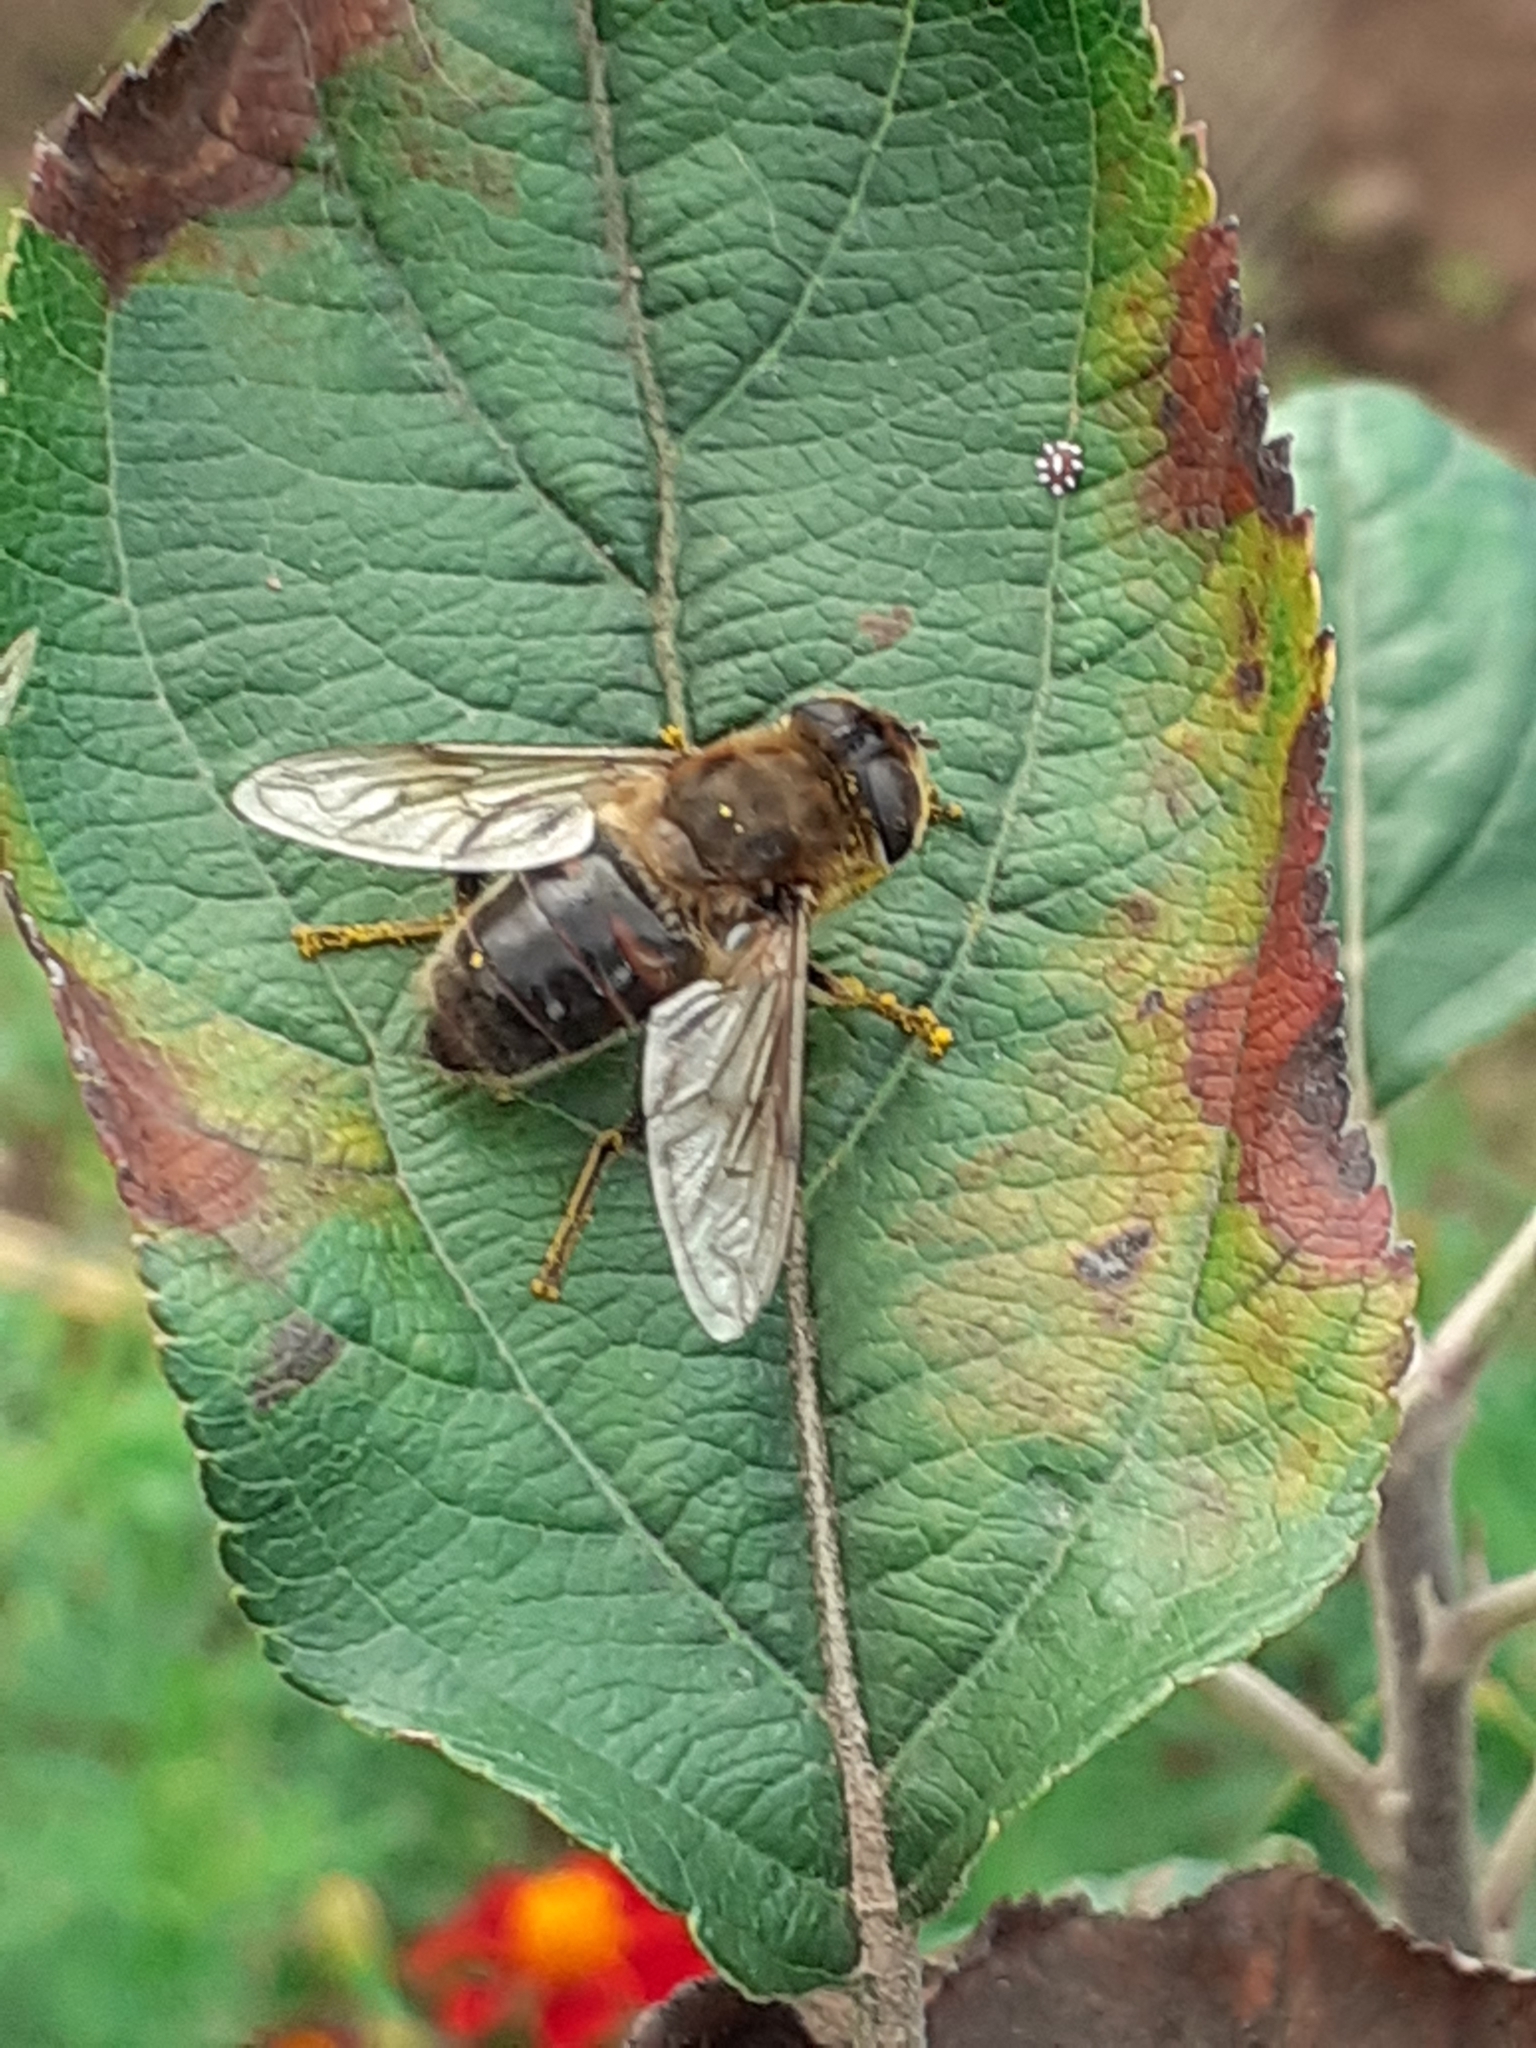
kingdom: Animalia
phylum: Arthropoda
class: Insecta
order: Diptera
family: Syrphidae
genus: Eristalis
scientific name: Eristalis tenax
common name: Drone fly
